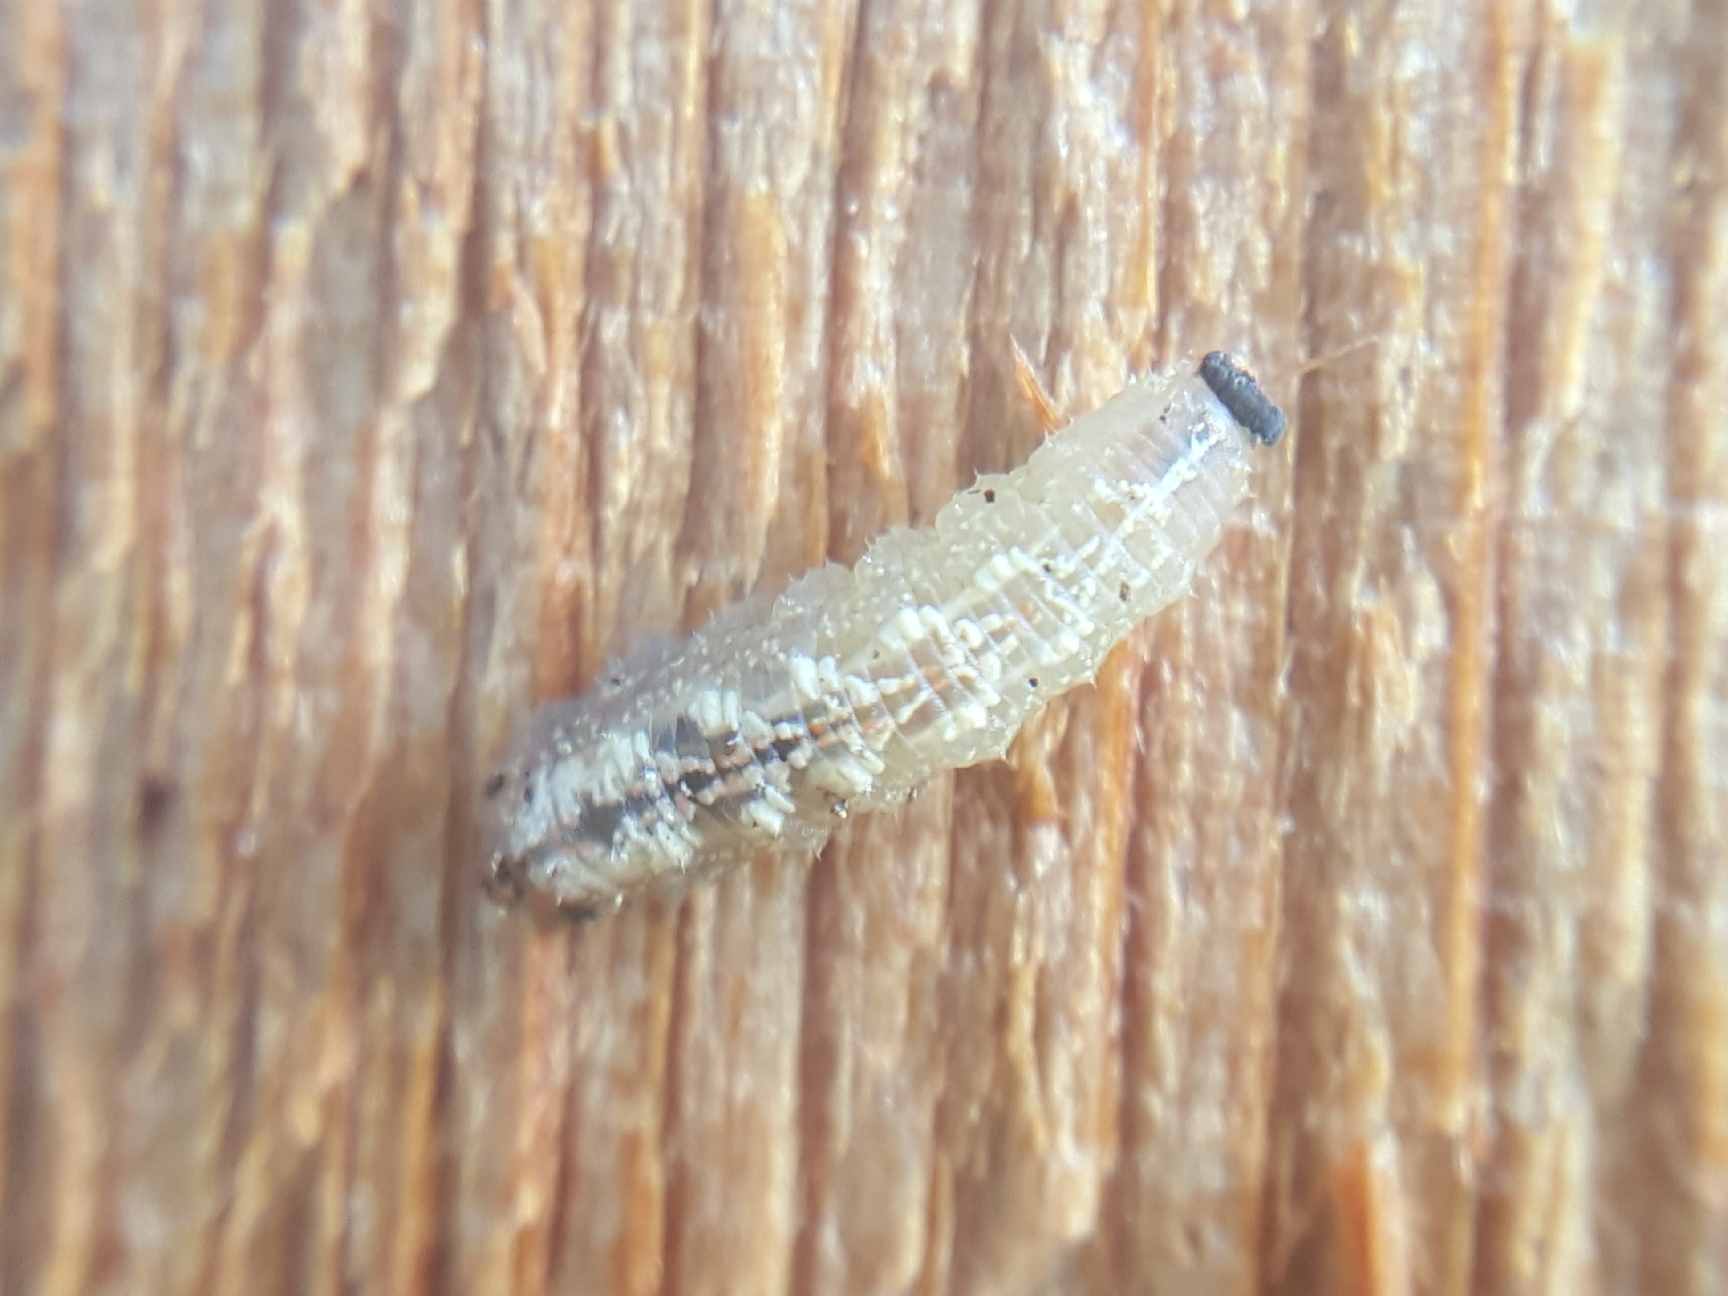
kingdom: Animalia
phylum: Arthropoda
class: Insecta
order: Diptera
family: Syrphidae
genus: Syrphus
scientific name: Syrphus
